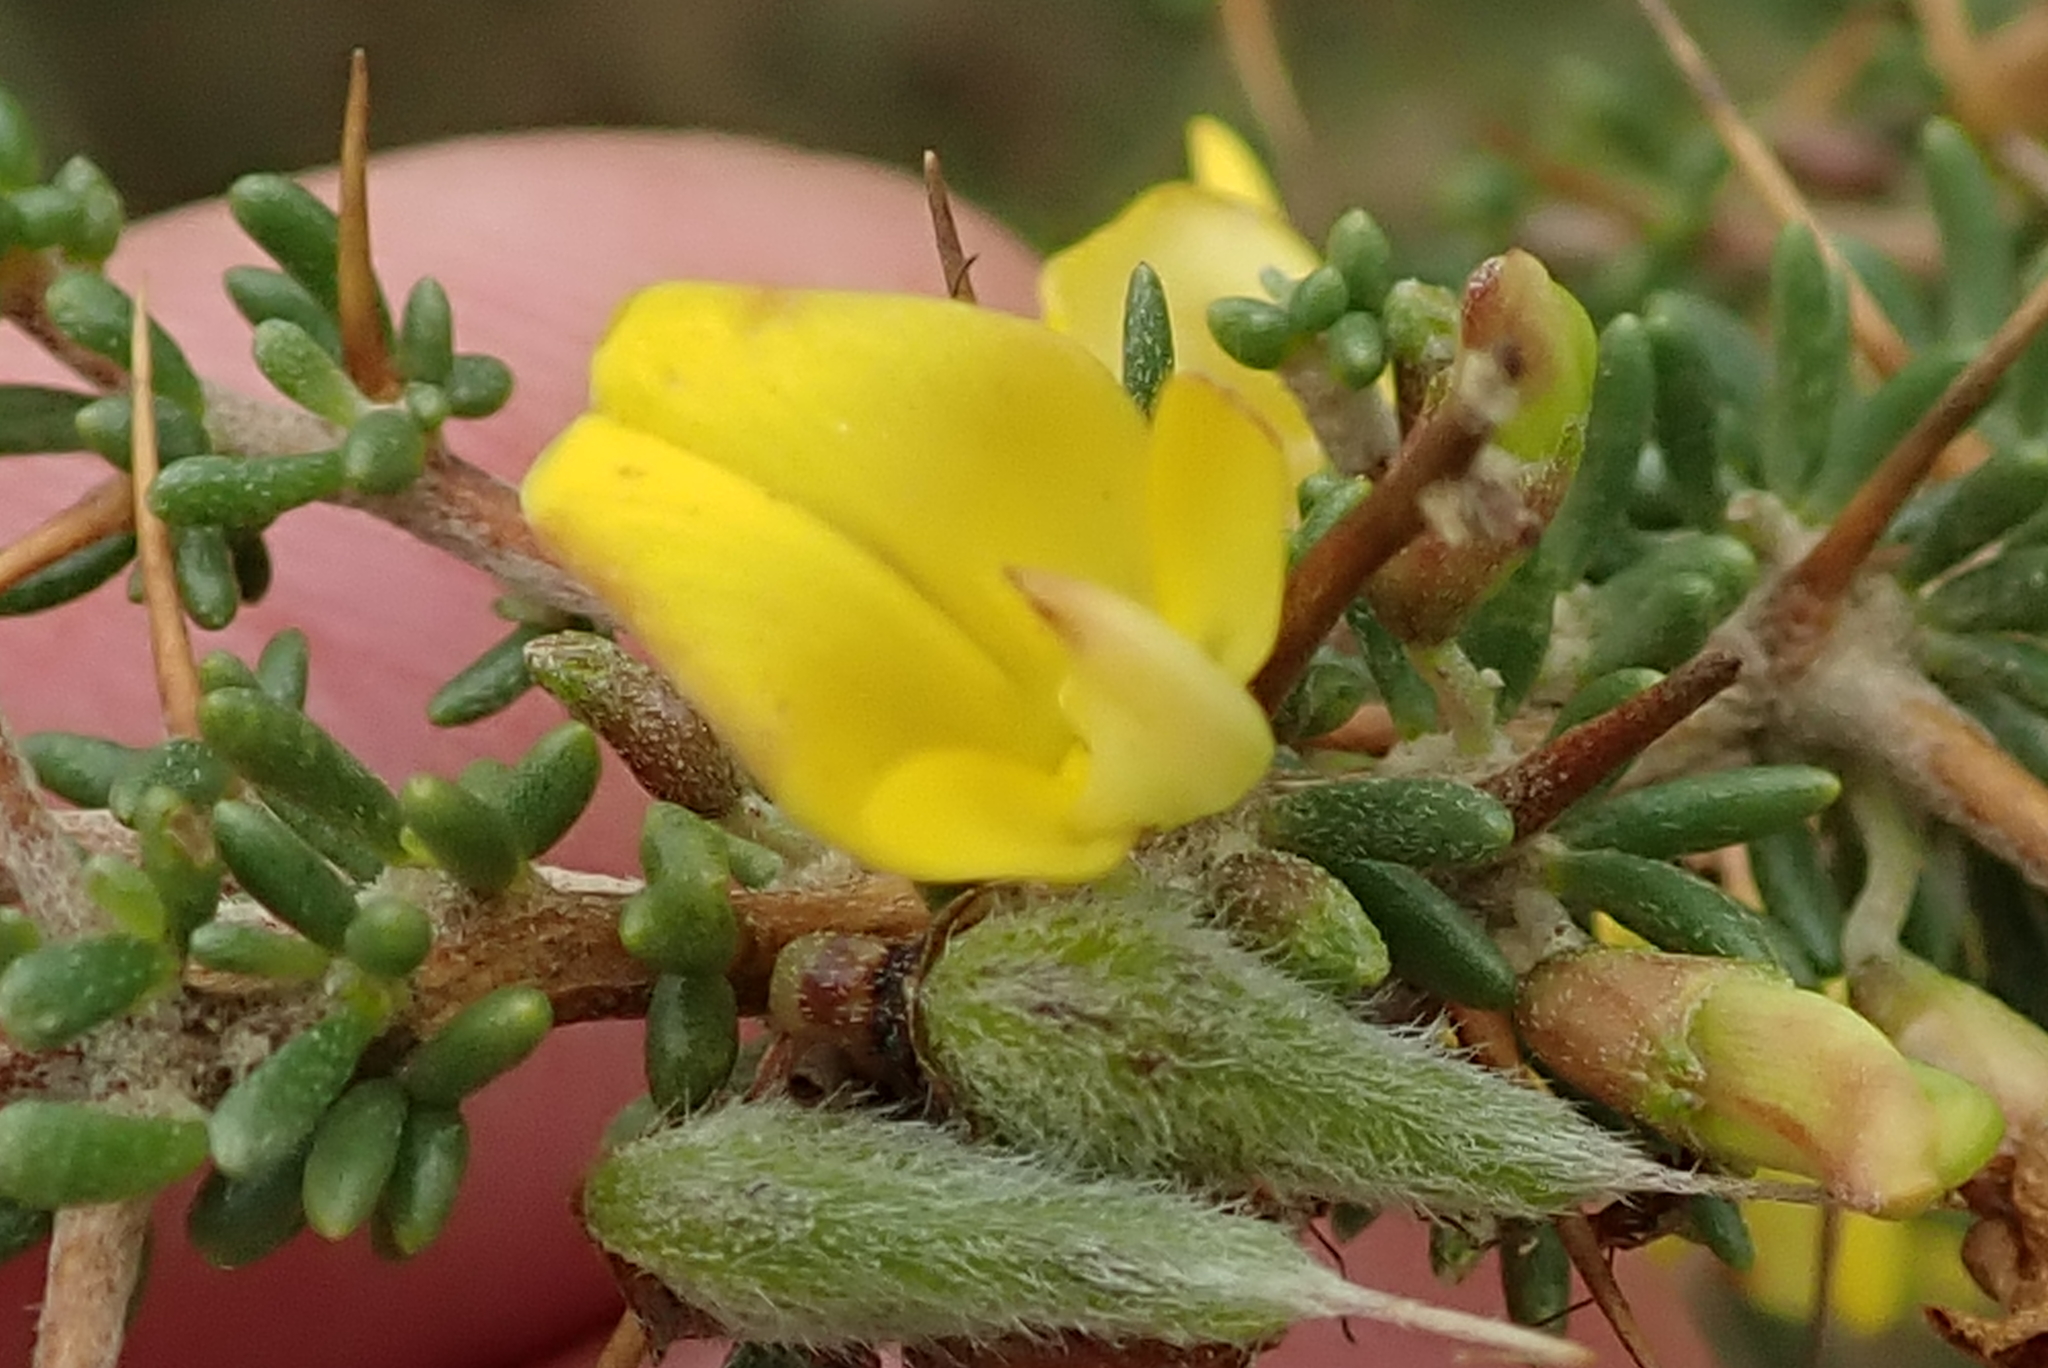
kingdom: Plantae
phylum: Tracheophyta
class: Magnoliopsida
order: Fabales
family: Fabaceae
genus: Aspalathus
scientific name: Aspalathus spinosa
